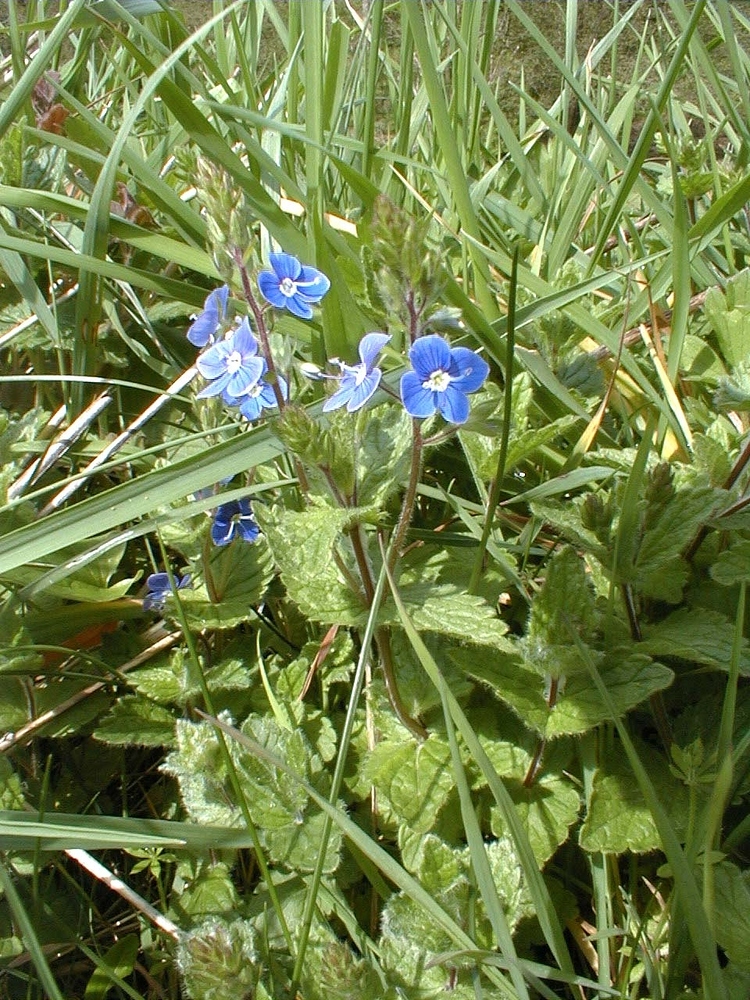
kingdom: Plantae
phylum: Tracheophyta
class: Magnoliopsida
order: Lamiales
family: Plantaginaceae
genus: Veronica
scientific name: Veronica chamaedrys
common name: Germander speedwell
